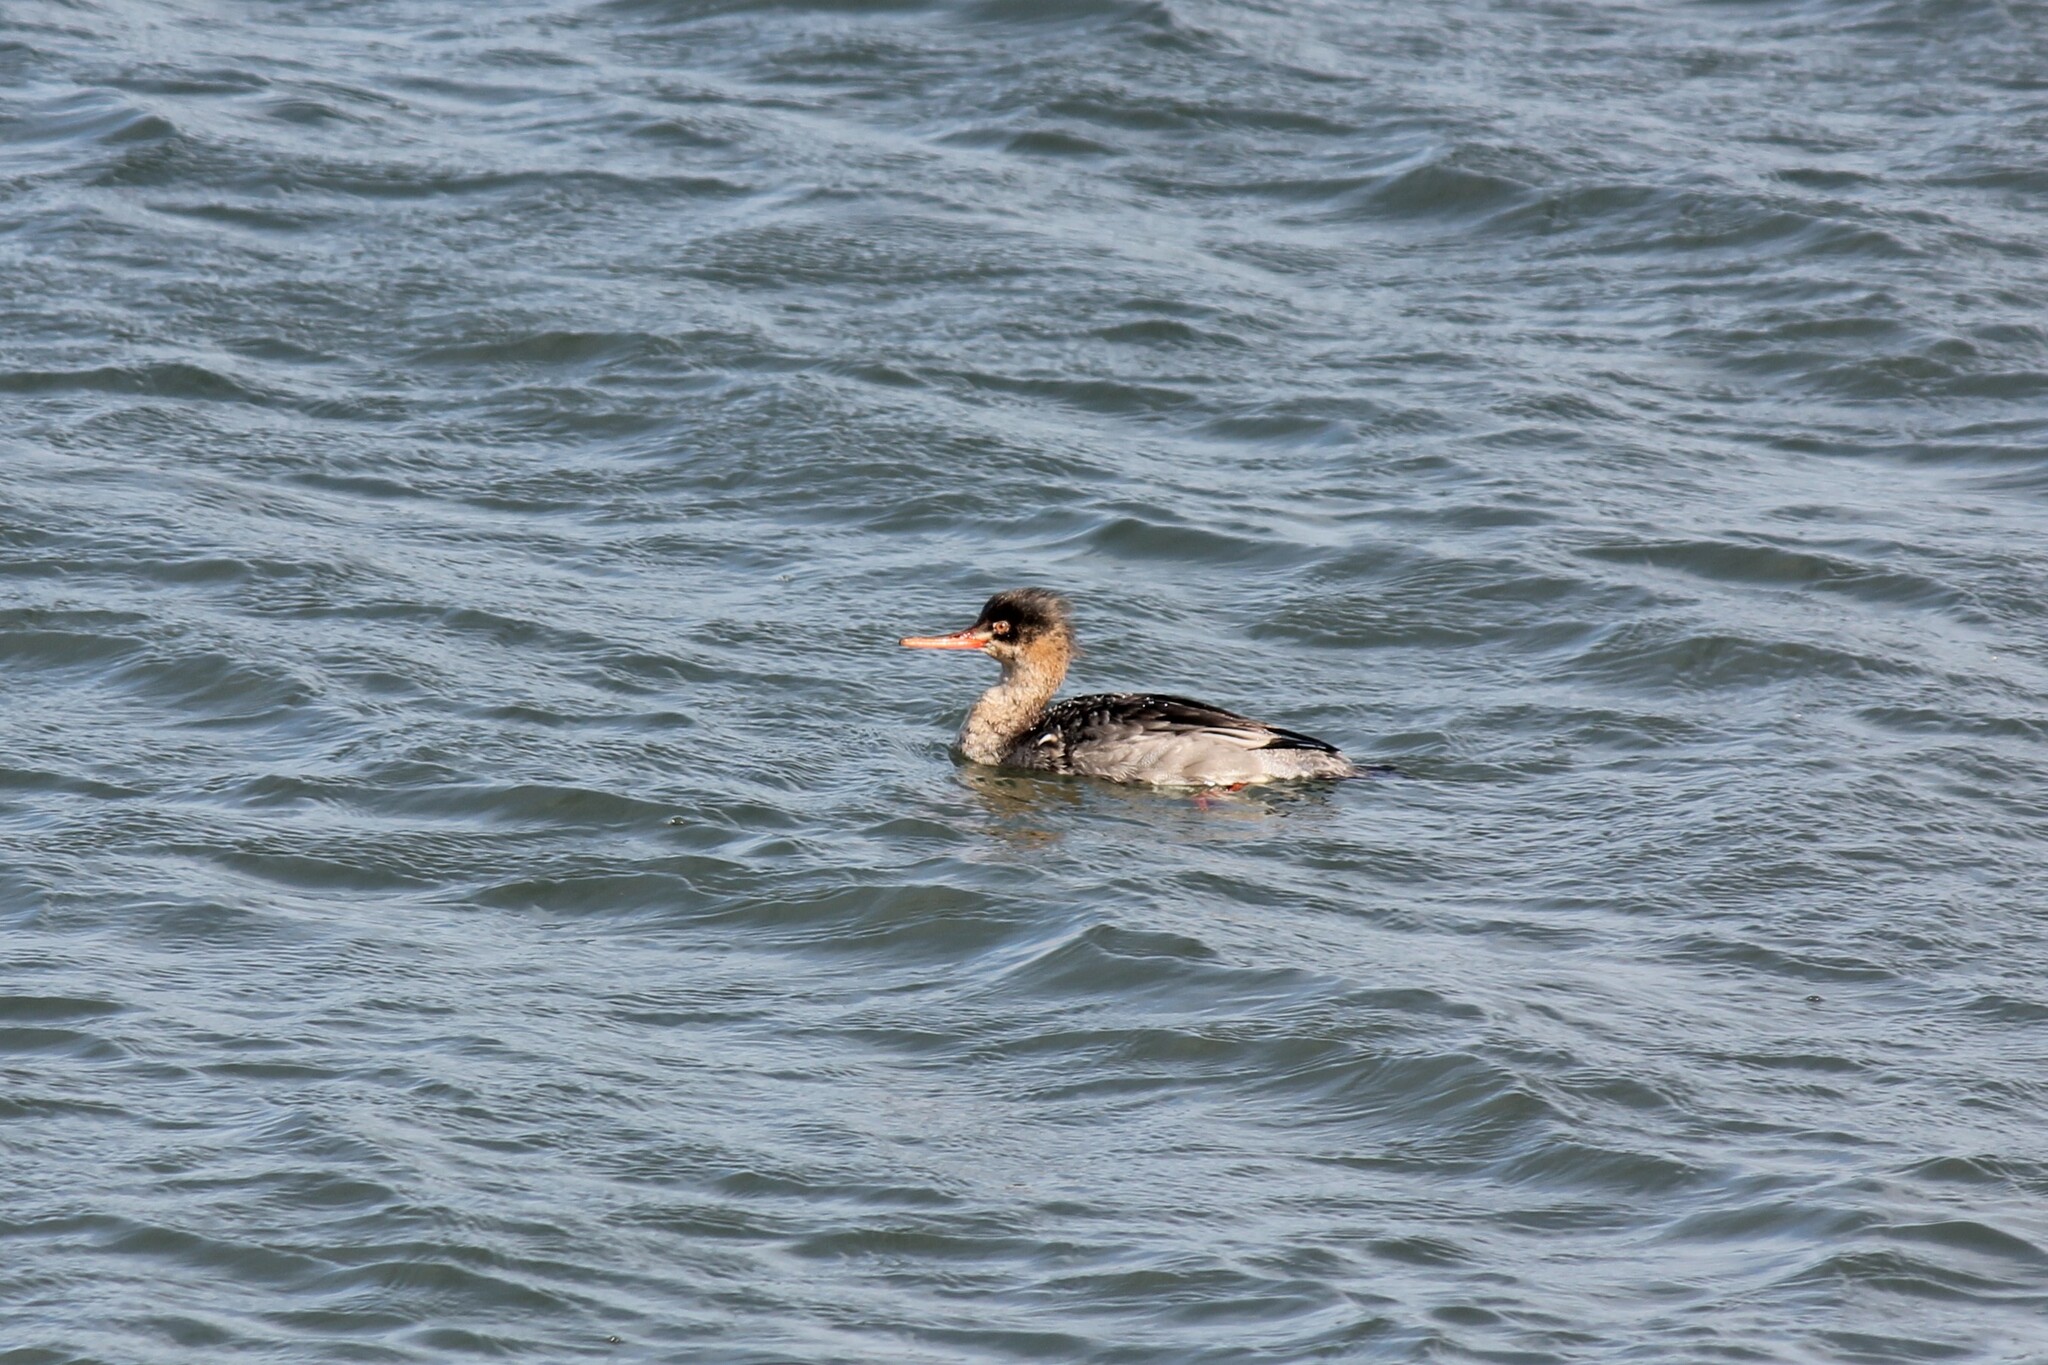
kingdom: Animalia
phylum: Chordata
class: Aves
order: Anseriformes
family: Anatidae
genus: Mergus
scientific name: Mergus serrator
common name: Red-breasted merganser
